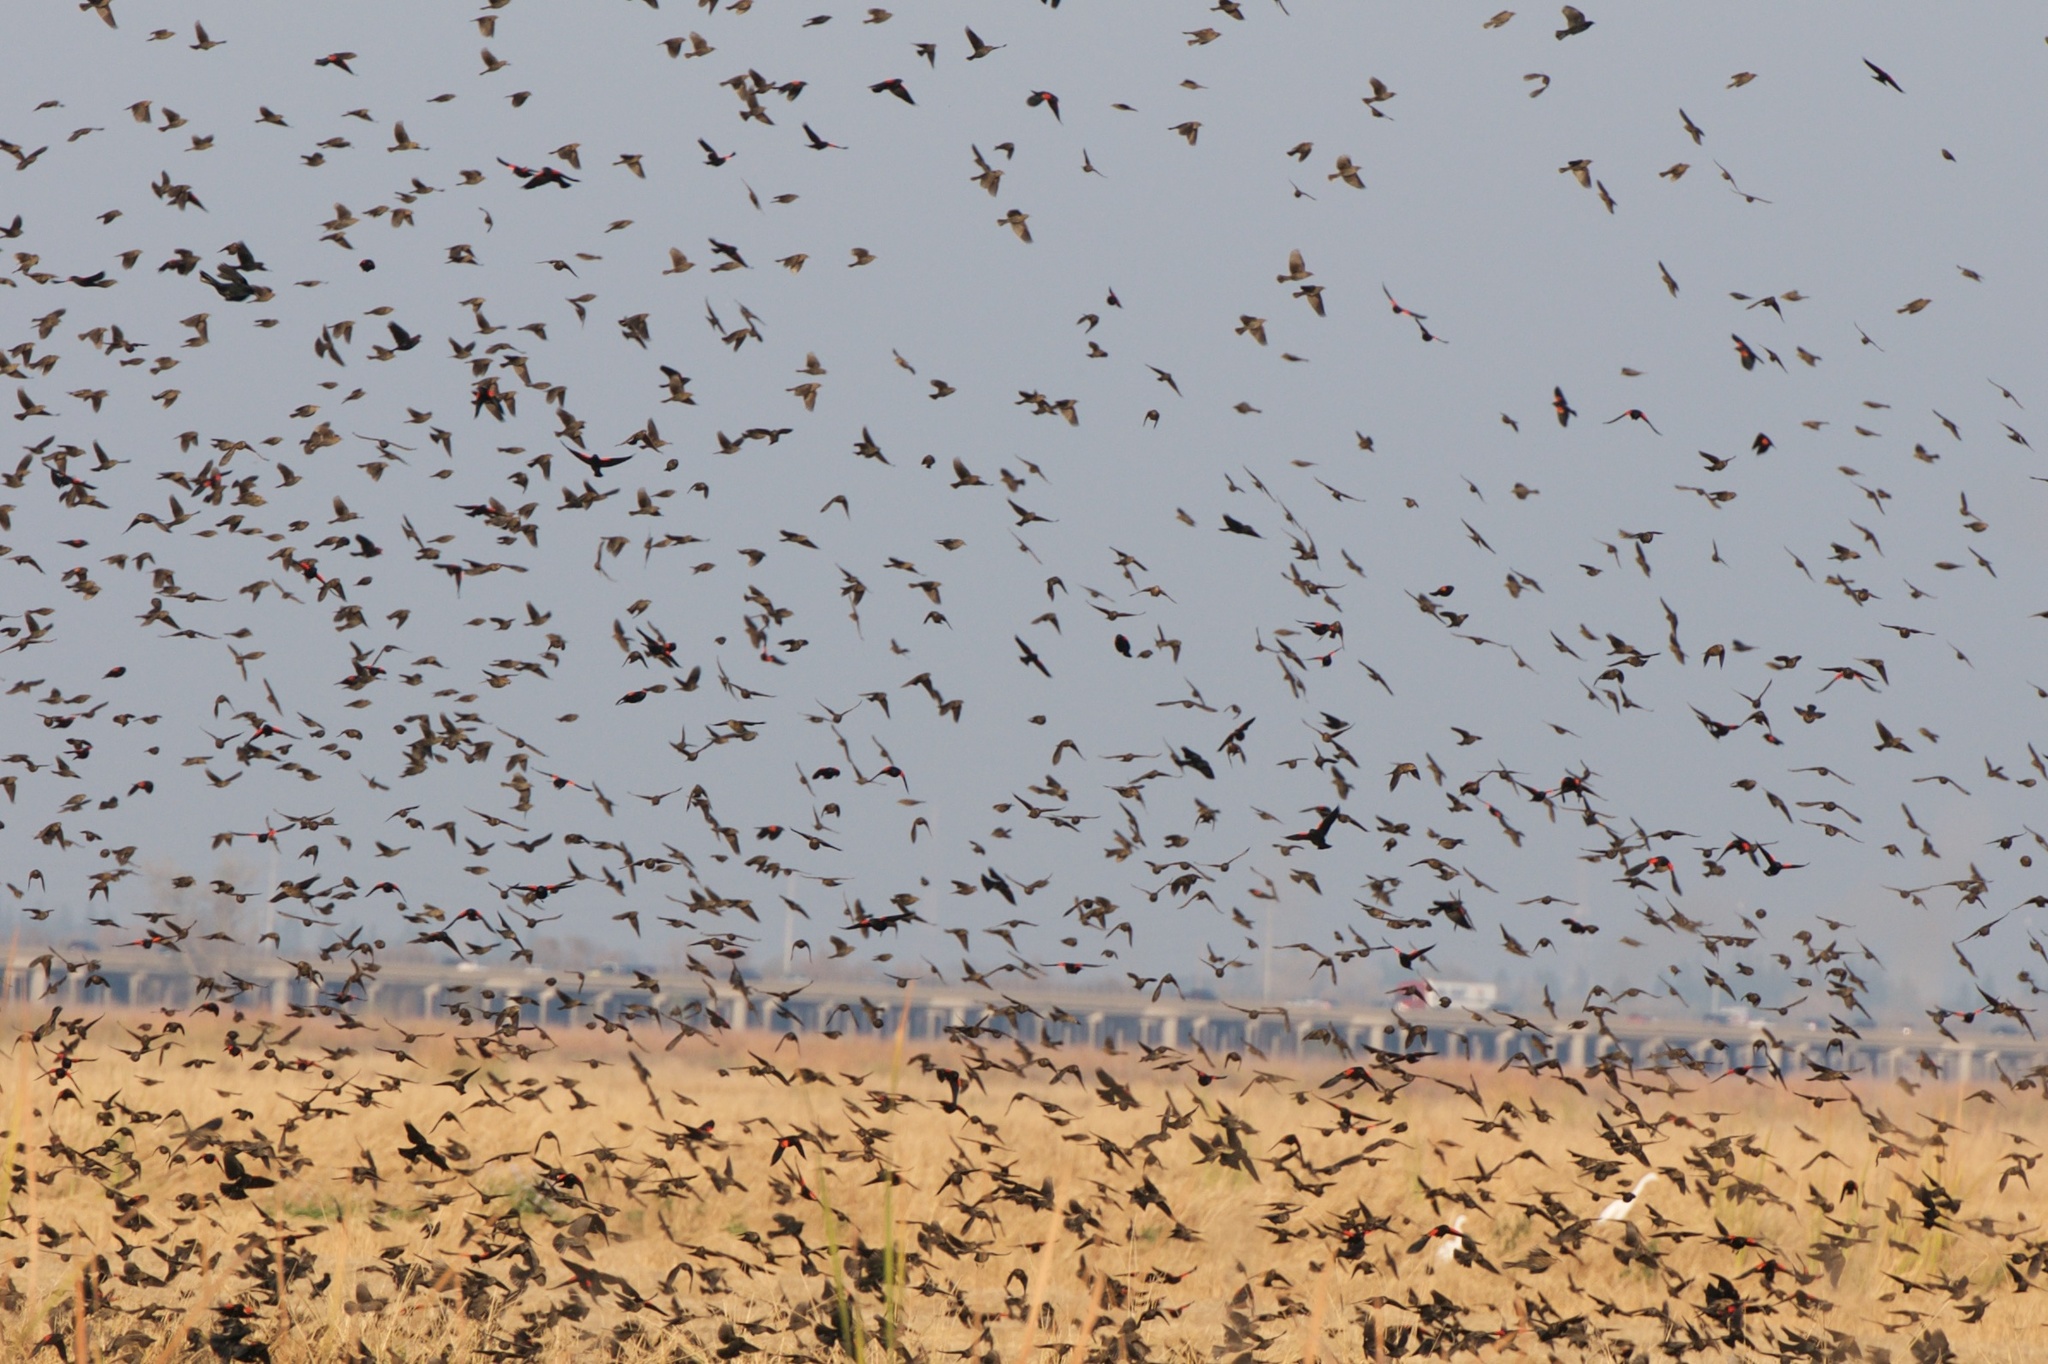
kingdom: Animalia
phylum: Chordata
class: Aves
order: Passeriformes
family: Icteridae
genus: Agelaius
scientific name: Agelaius phoeniceus
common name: Red-winged blackbird
